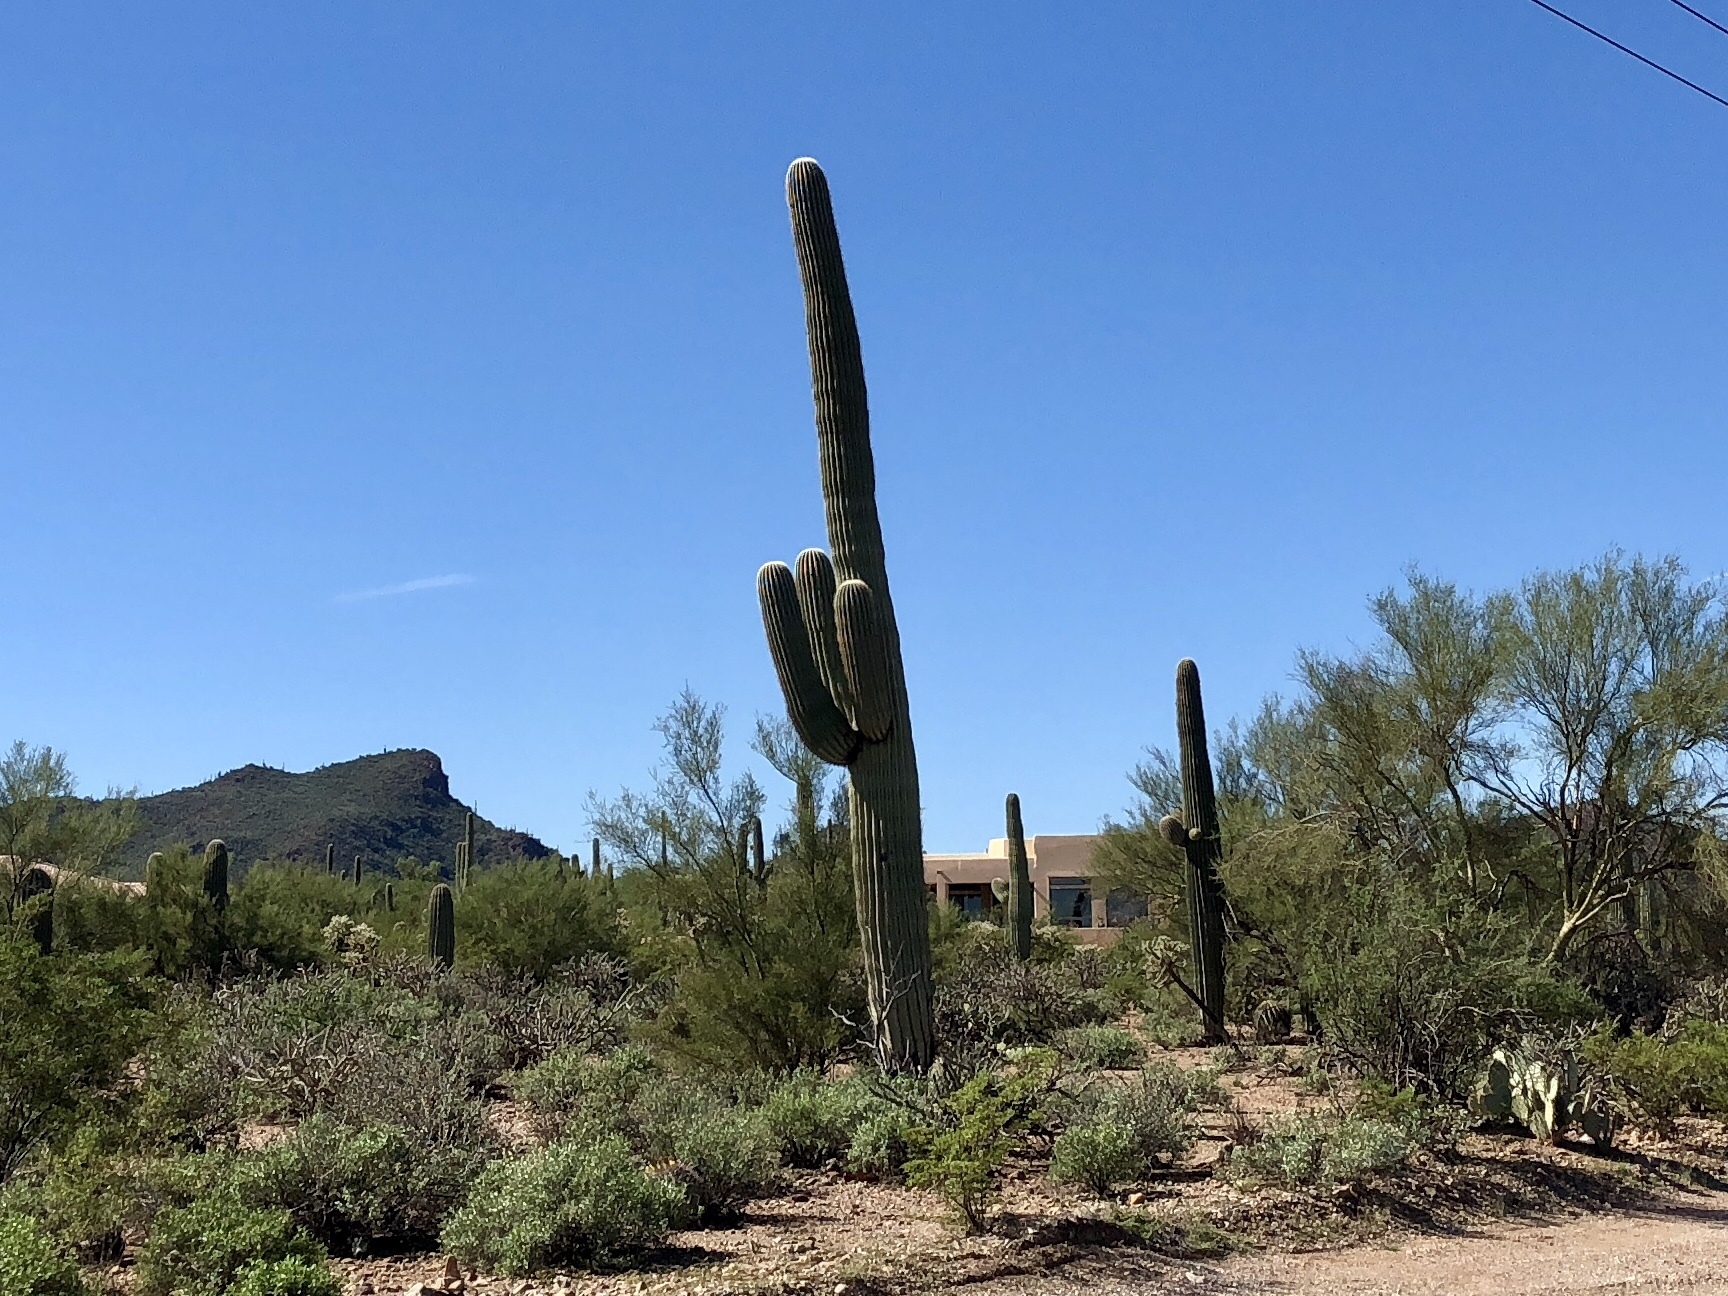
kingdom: Plantae
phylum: Tracheophyta
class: Magnoliopsida
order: Caryophyllales
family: Cactaceae
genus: Carnegiea
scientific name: Carnegiea gigantea
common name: Saguaro
